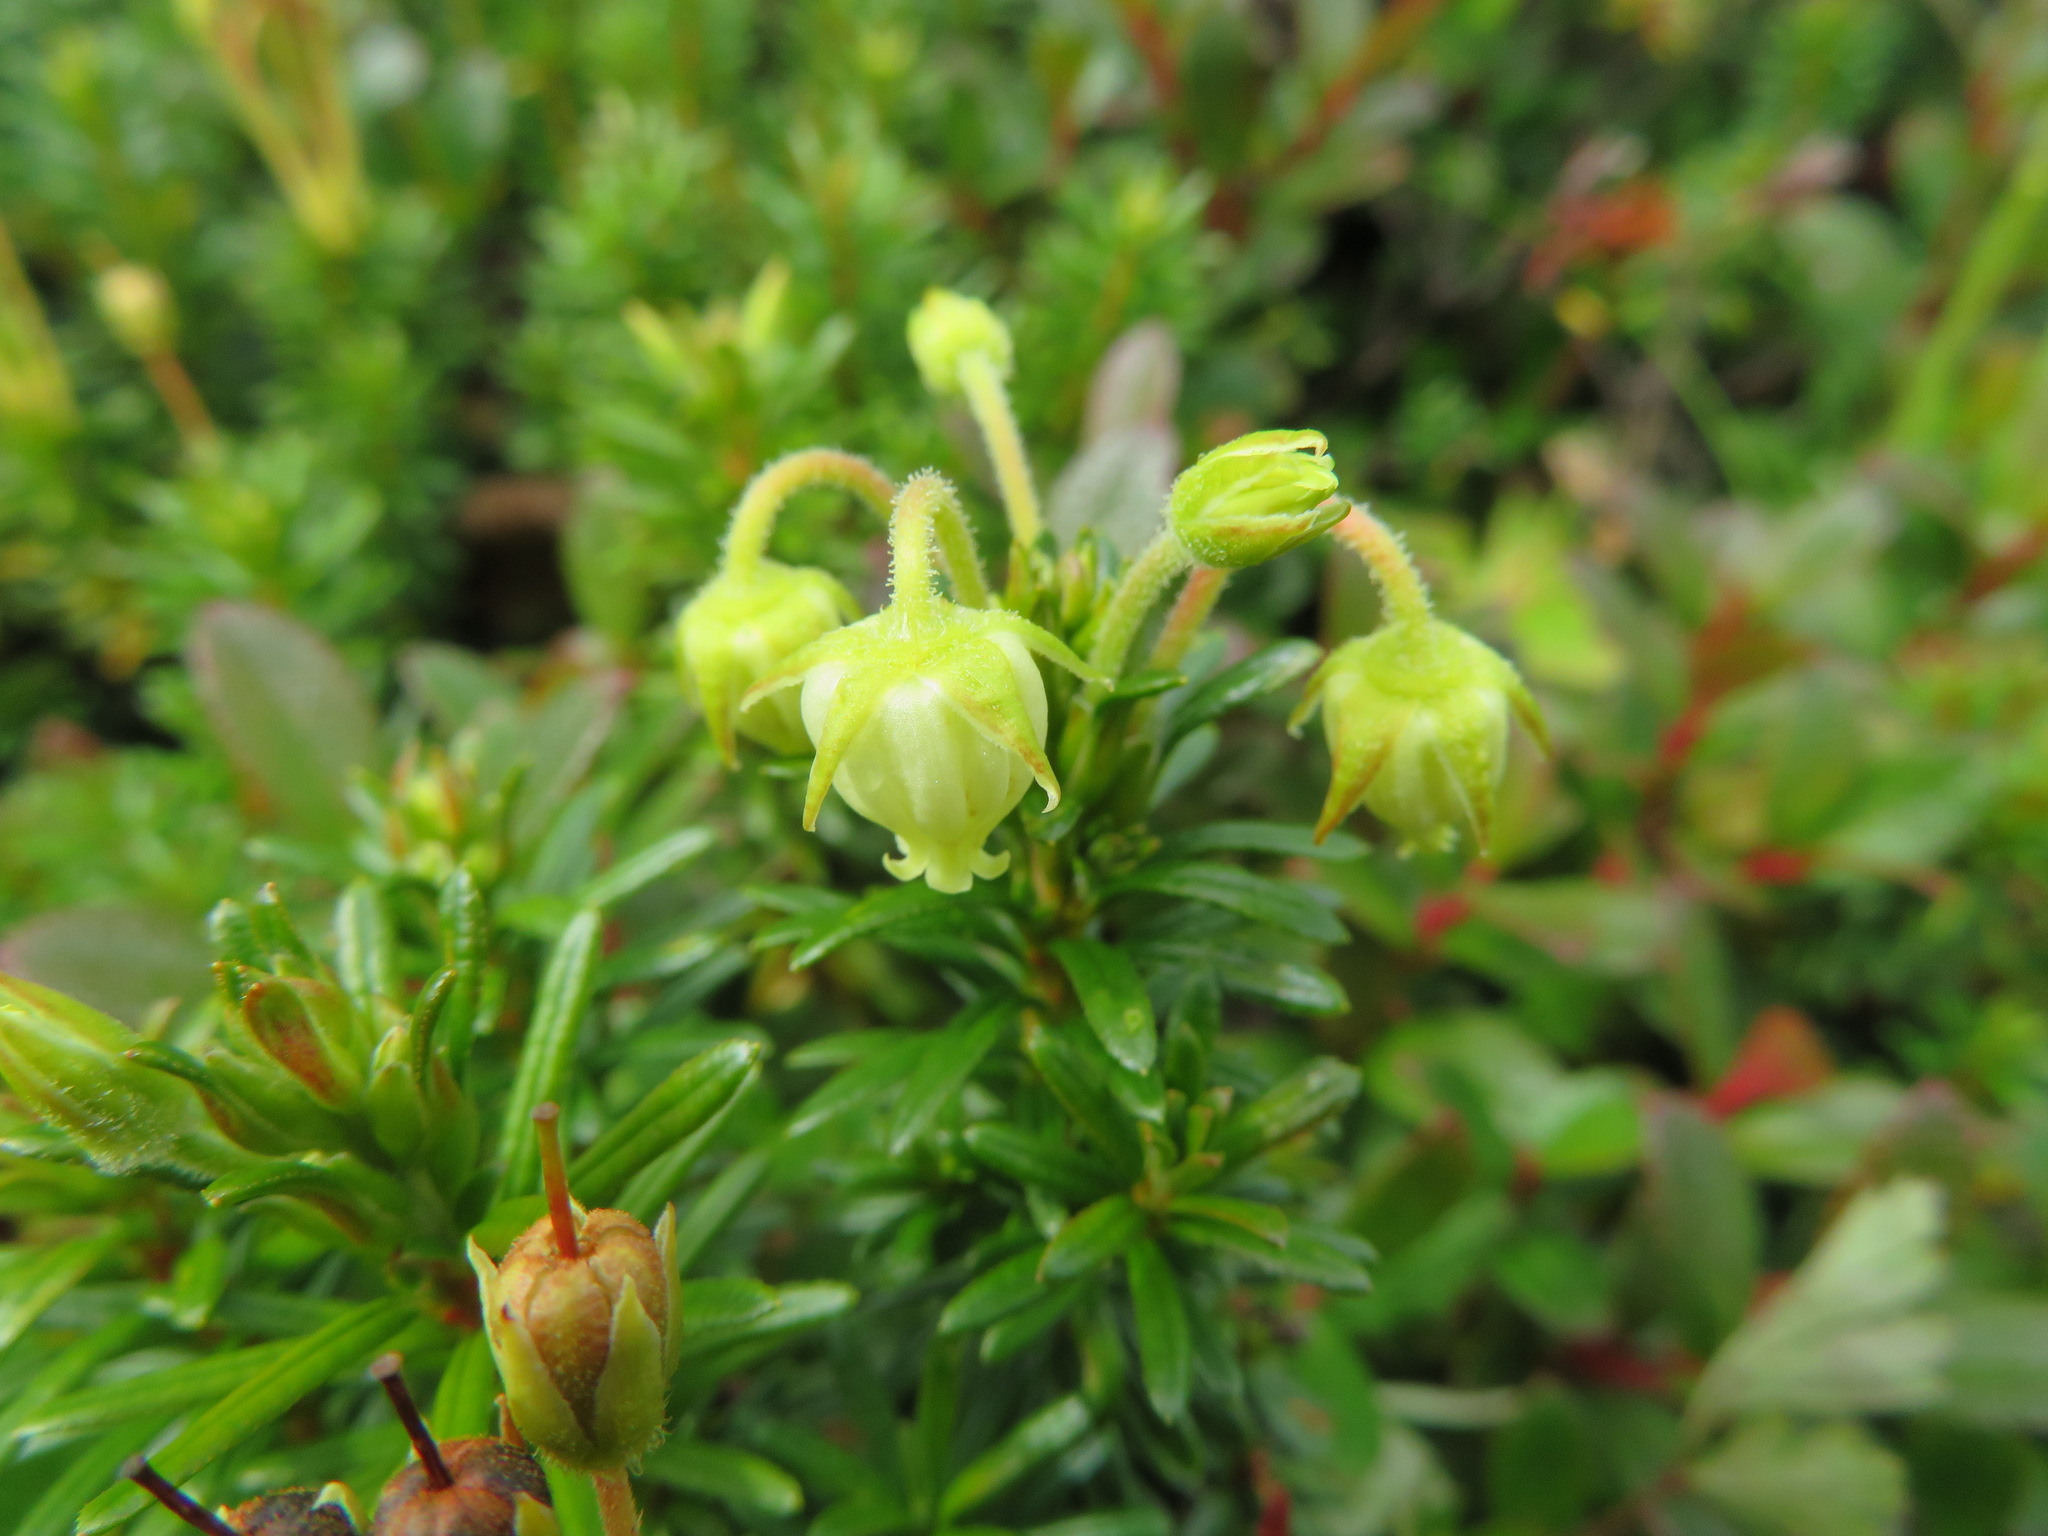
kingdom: Plantae
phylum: Tracheophyta
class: Magnoliopsida
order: Ericales
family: Ericaceae
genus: Phyllodoce
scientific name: Phyllodoce aleutica
